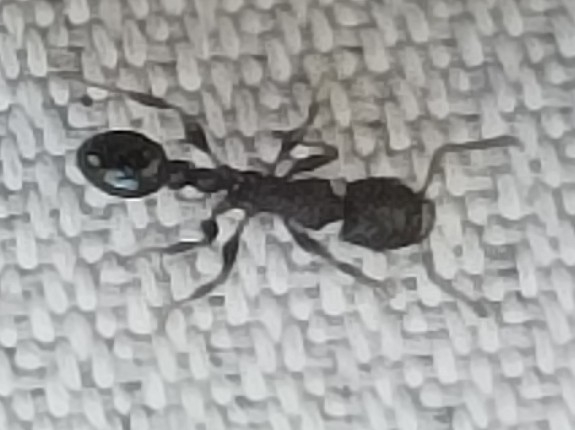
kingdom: Animalia
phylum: Arthropoda
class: Insecta
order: Hymenoptera
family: Formicidae
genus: Tetramorium
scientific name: Tetramorium pacificum
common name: Ant
